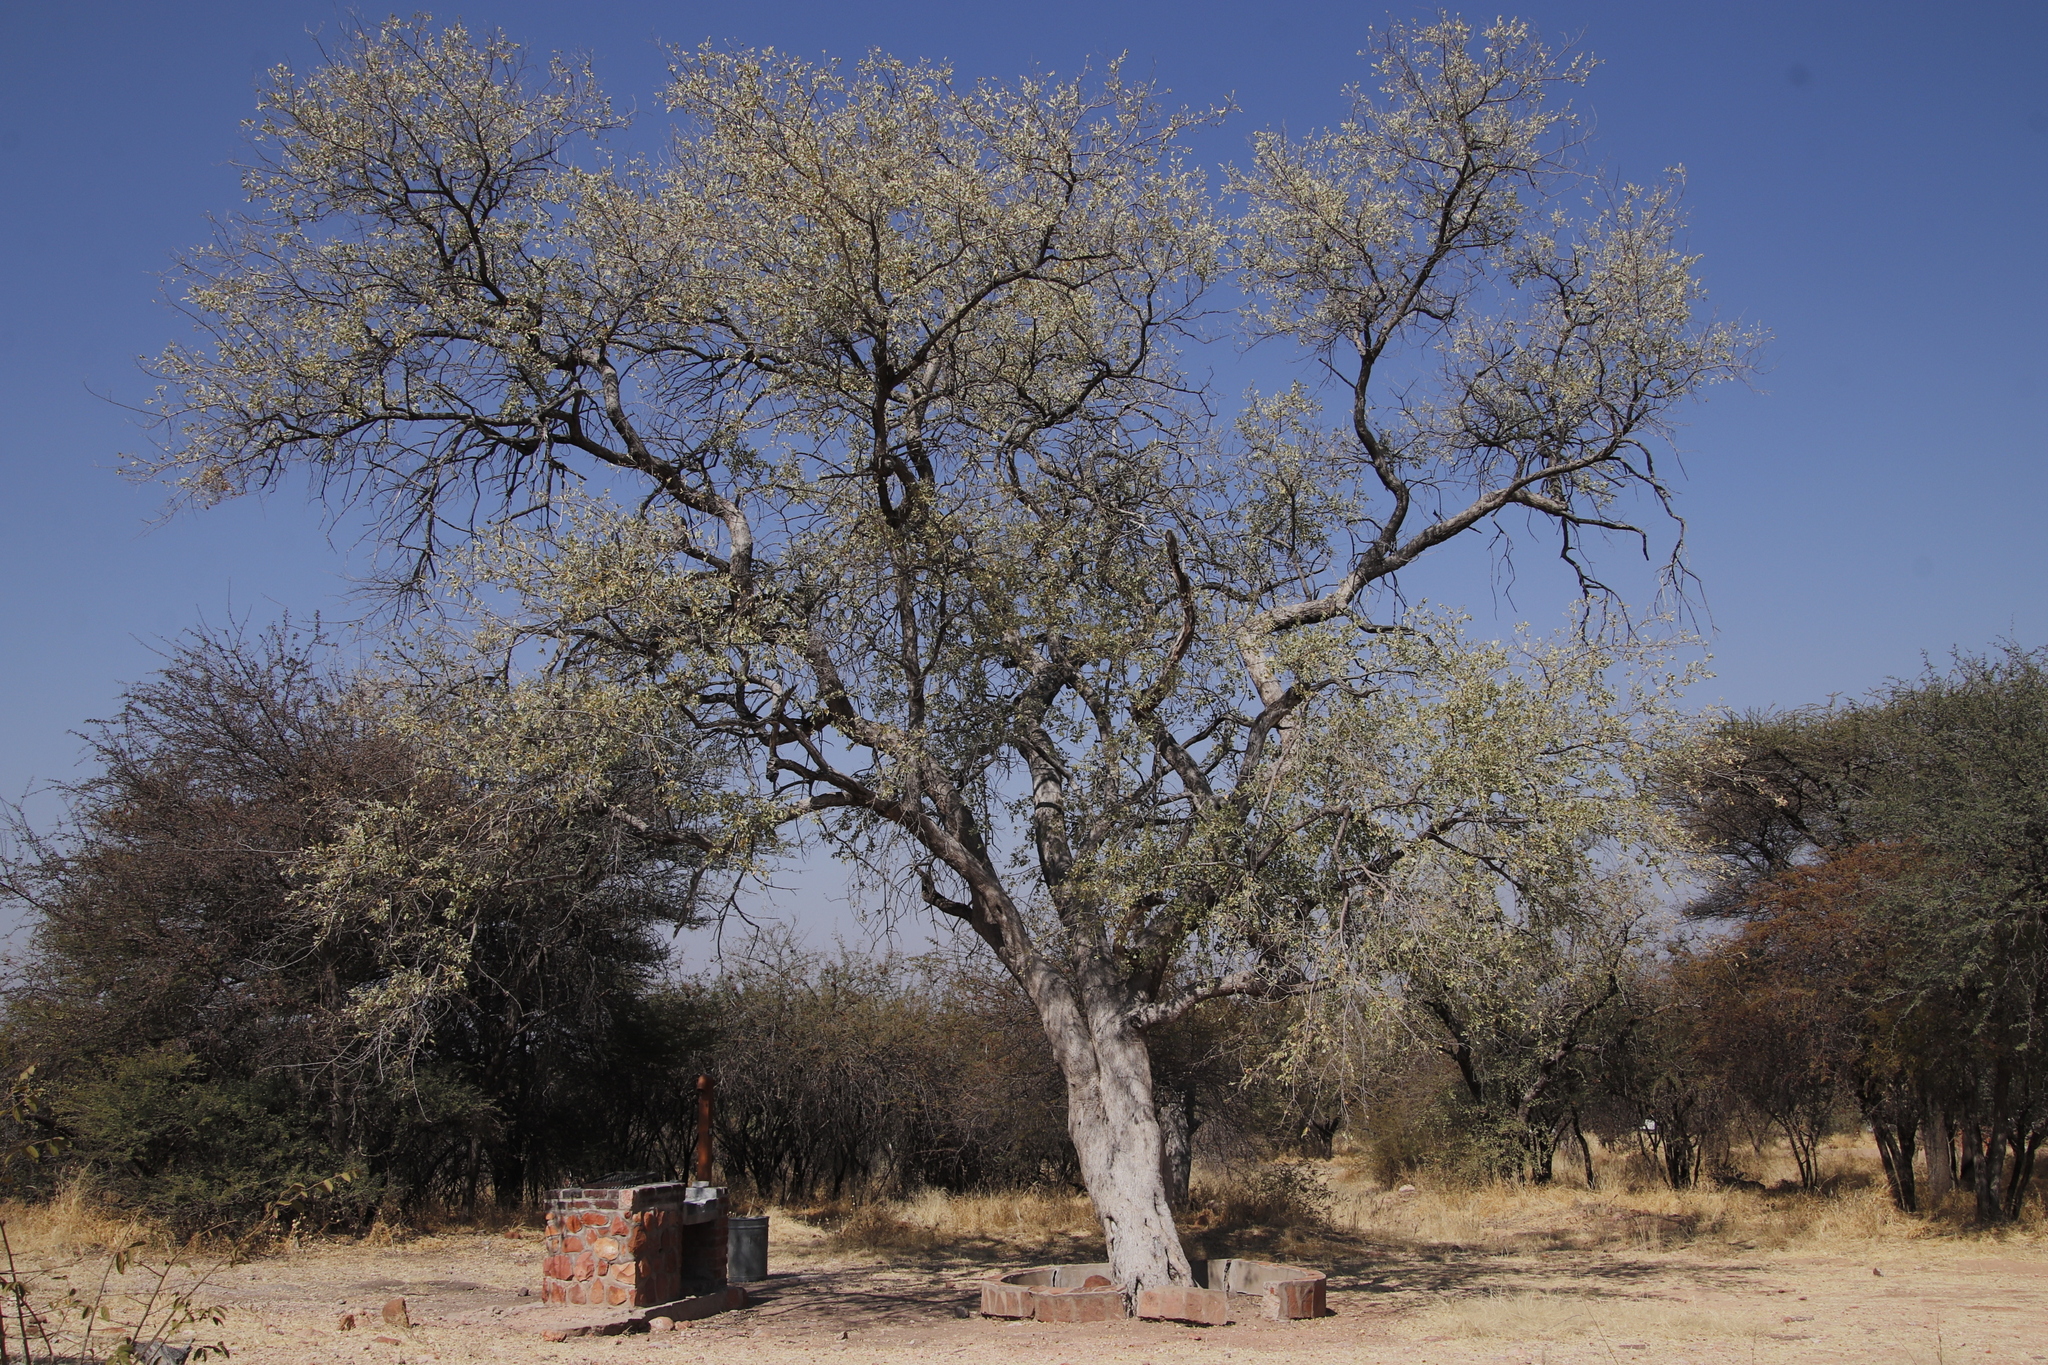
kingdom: Plantae
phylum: Tracheophyta
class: Magnoliopsida
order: Myrtales
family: Combretaceae
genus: Combretum
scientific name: Combretum imberbe
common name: Leadwood
